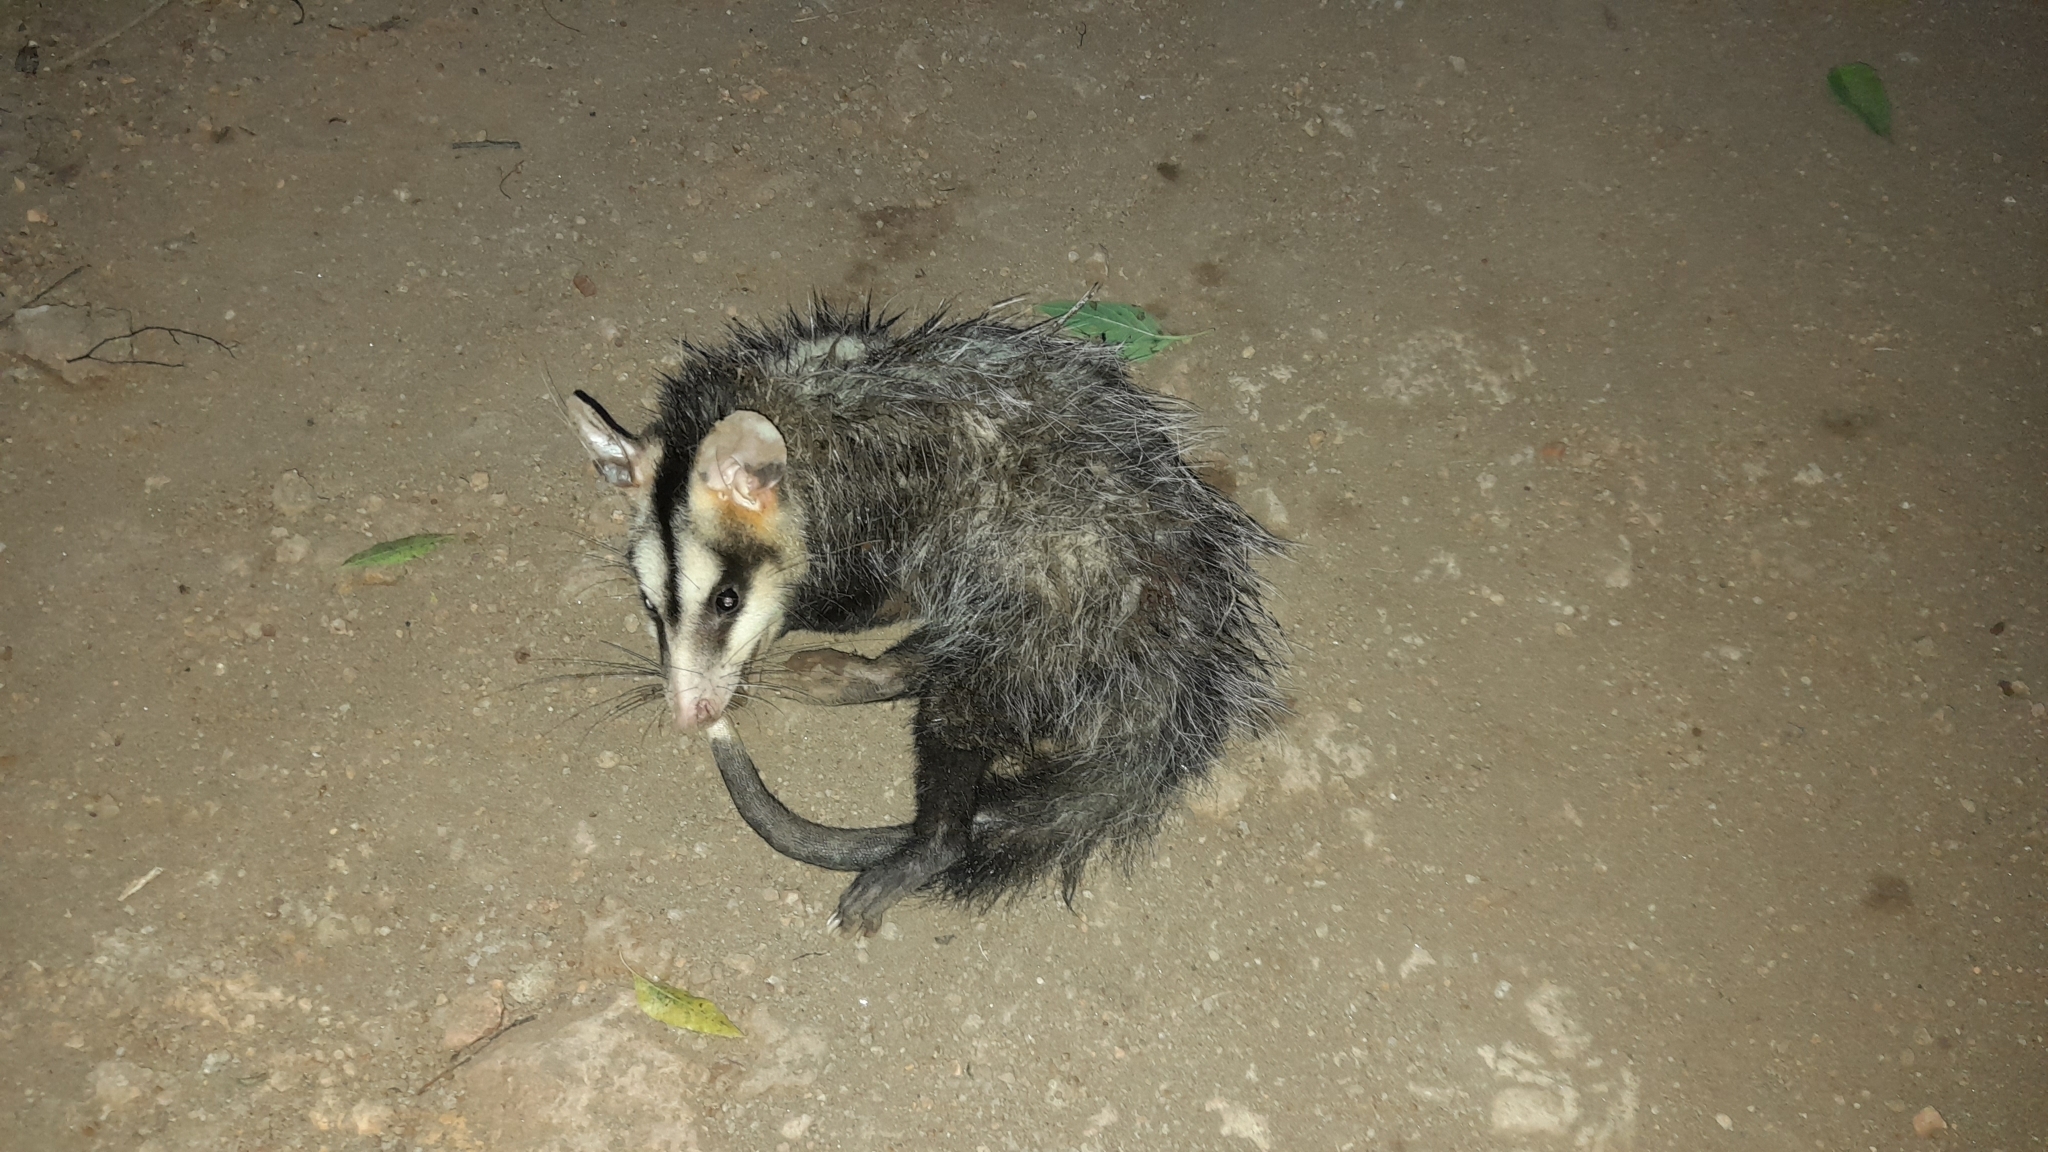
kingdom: Animalia
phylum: Chordata
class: Mammalia
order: Didelphimorphia
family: Didelphidae
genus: Didelphis
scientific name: Didelphis albiventris
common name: White-eared opossum
